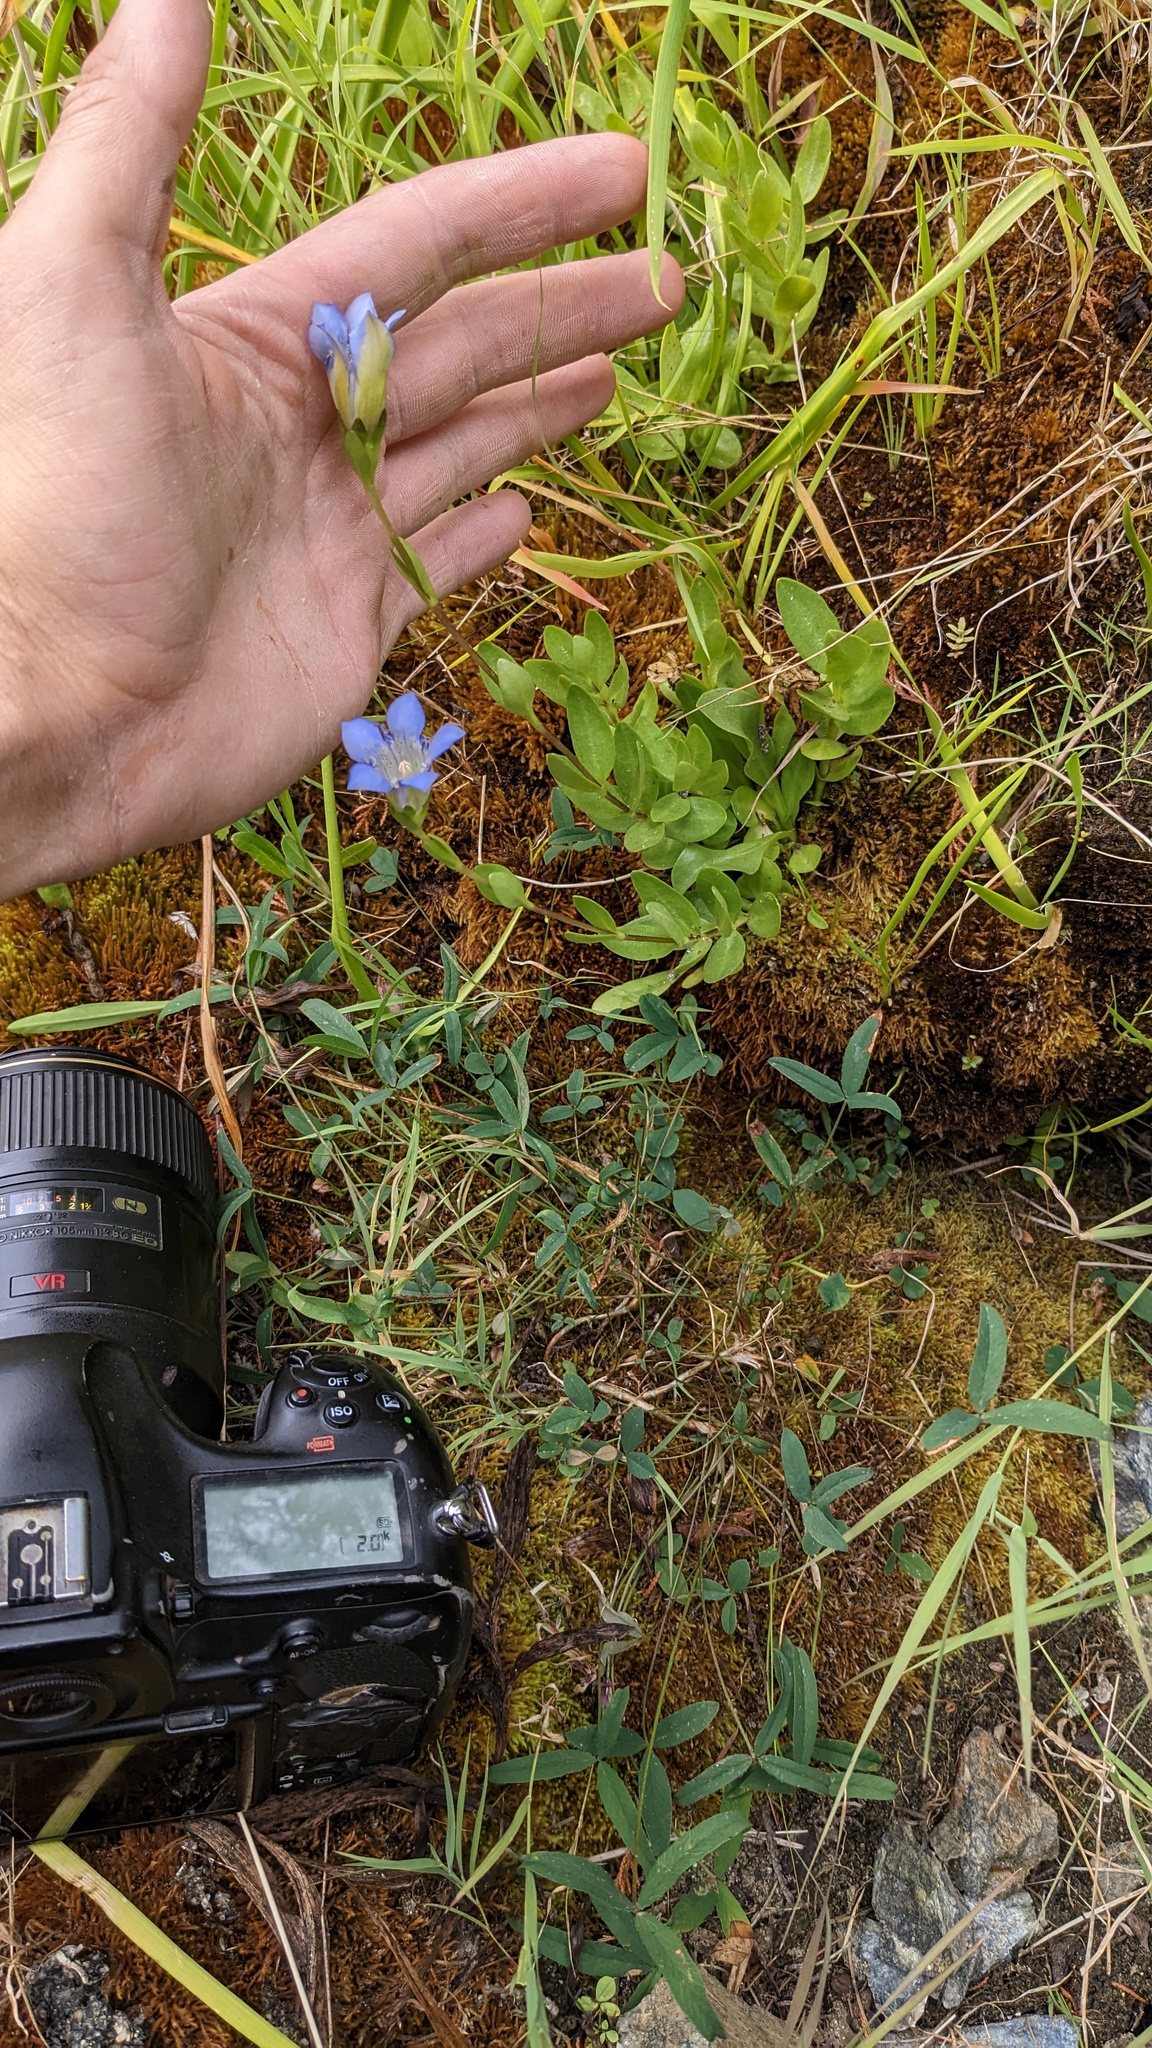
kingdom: Plantae
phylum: Tracheophyta
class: Magnoliopsida
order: Gentianales
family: Gentianaceae
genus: Gentiana
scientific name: Gentiana setigera
